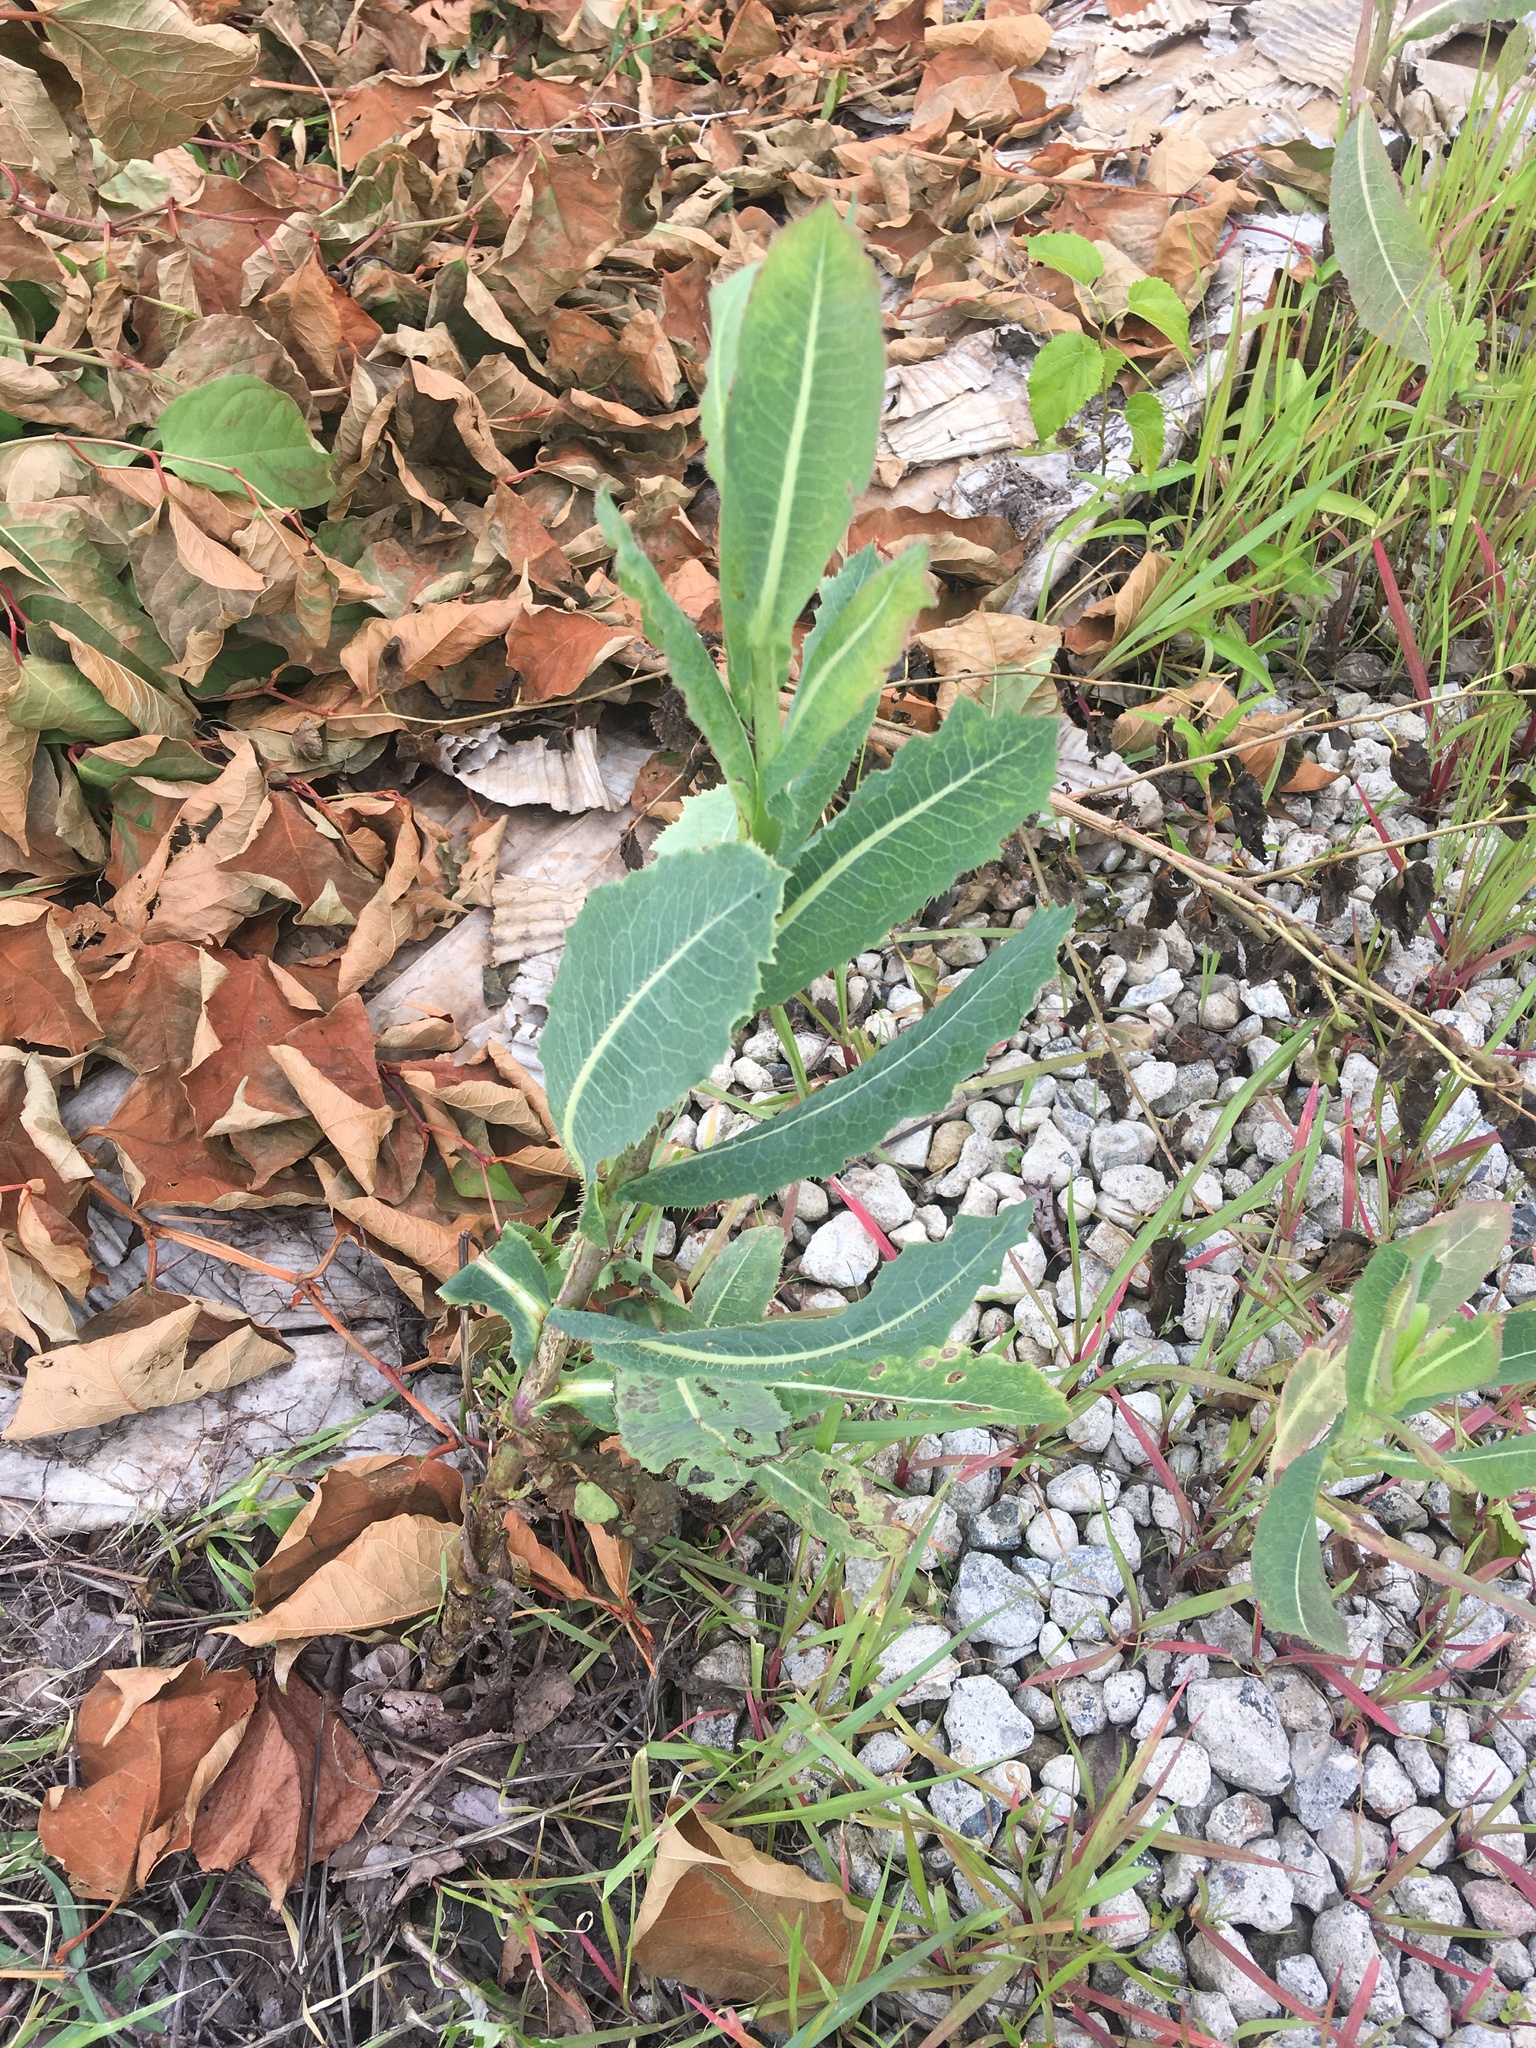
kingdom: Plantae
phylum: Tracheophyta
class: Magnoliopsida
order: Asterales
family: Asteraceae
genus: Lactuca
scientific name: Lactuca serriola
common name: Prickly lettuce
